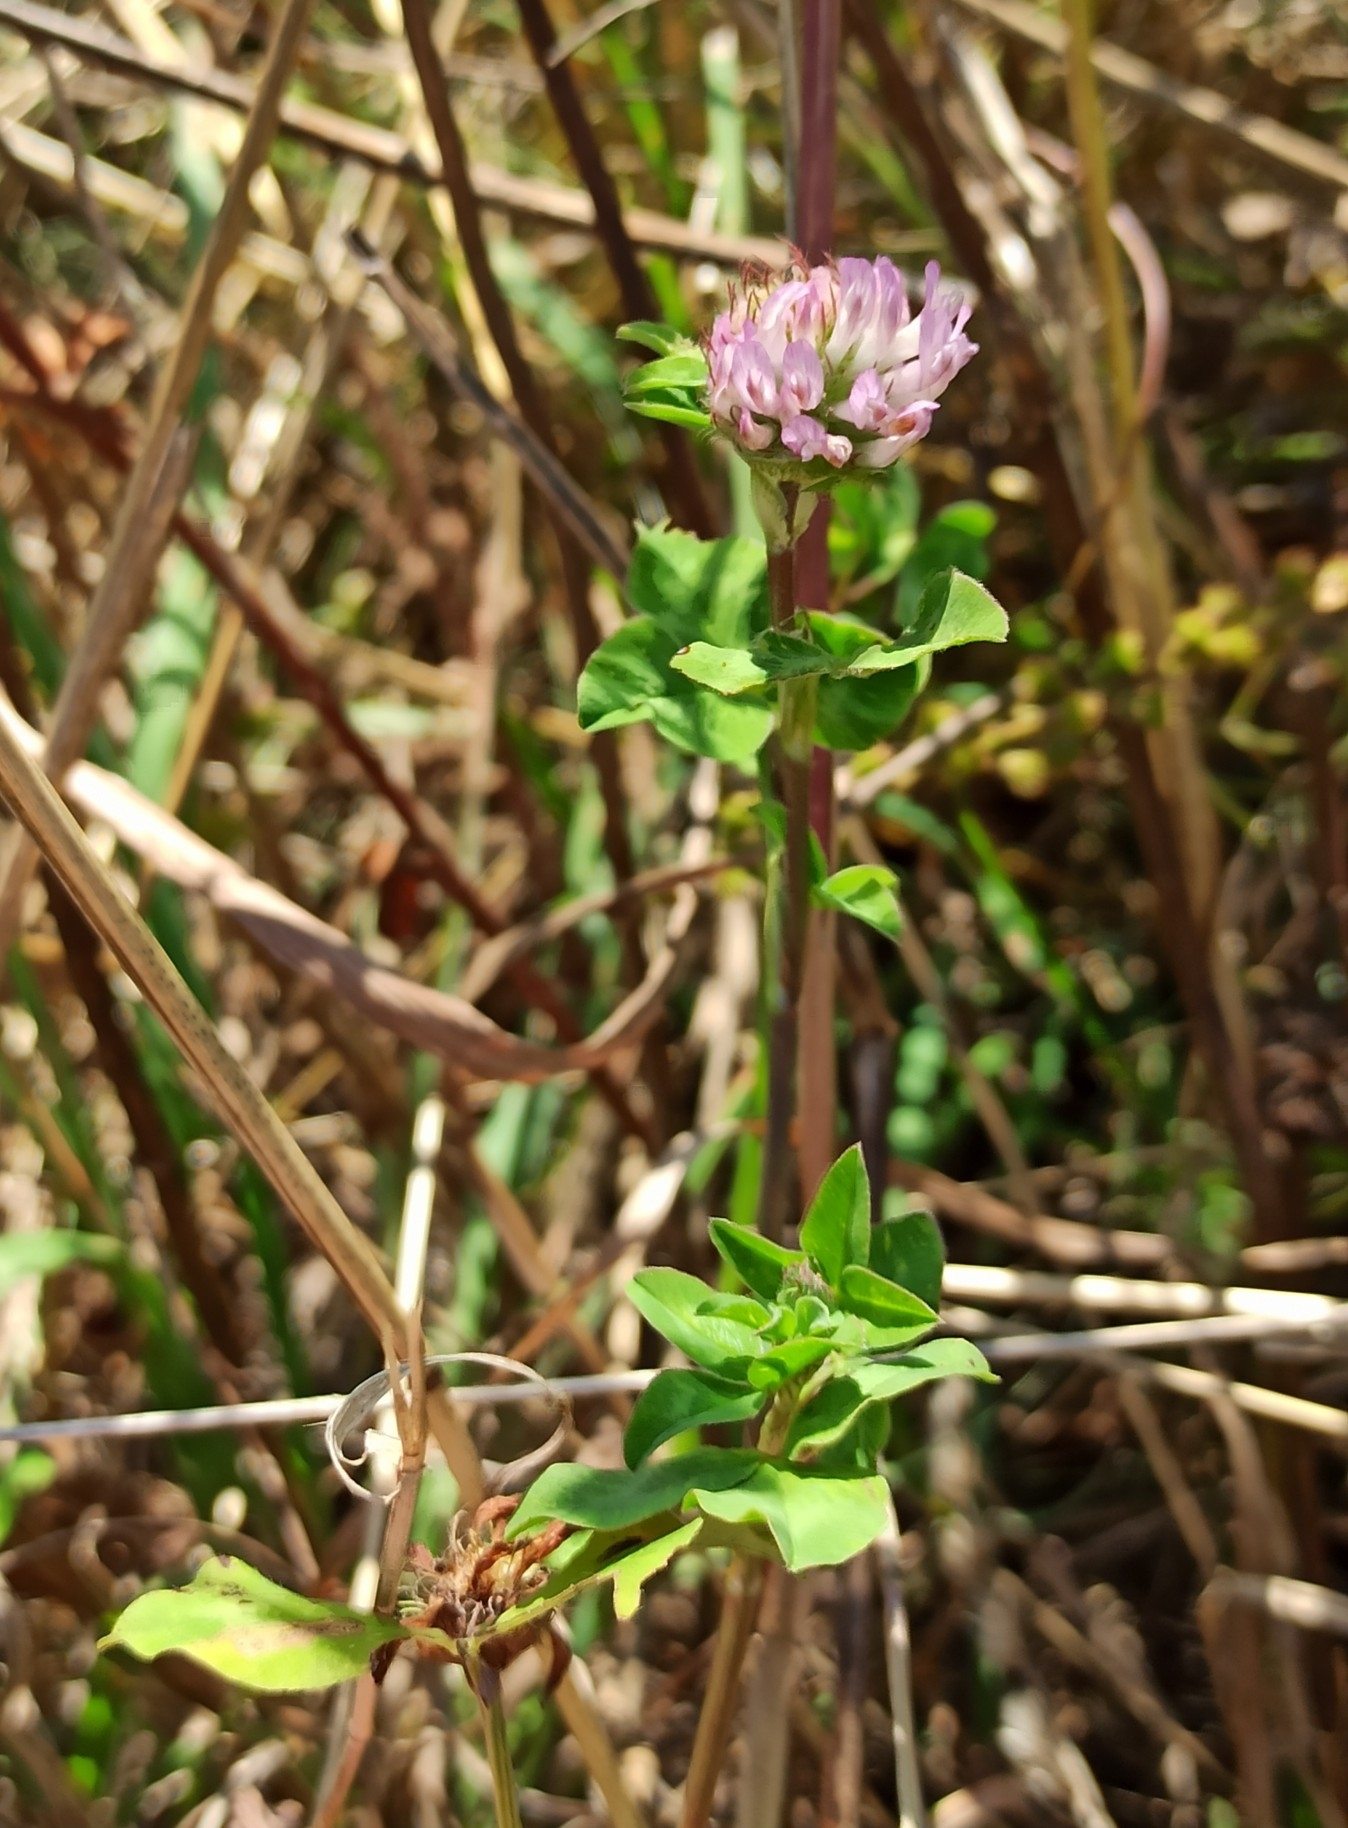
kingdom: Plantae
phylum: Tracheophyta
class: Magnoliopsida
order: Fabales
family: Fabaceae
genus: Trifolium
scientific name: Trifolium pratense
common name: Red clover
